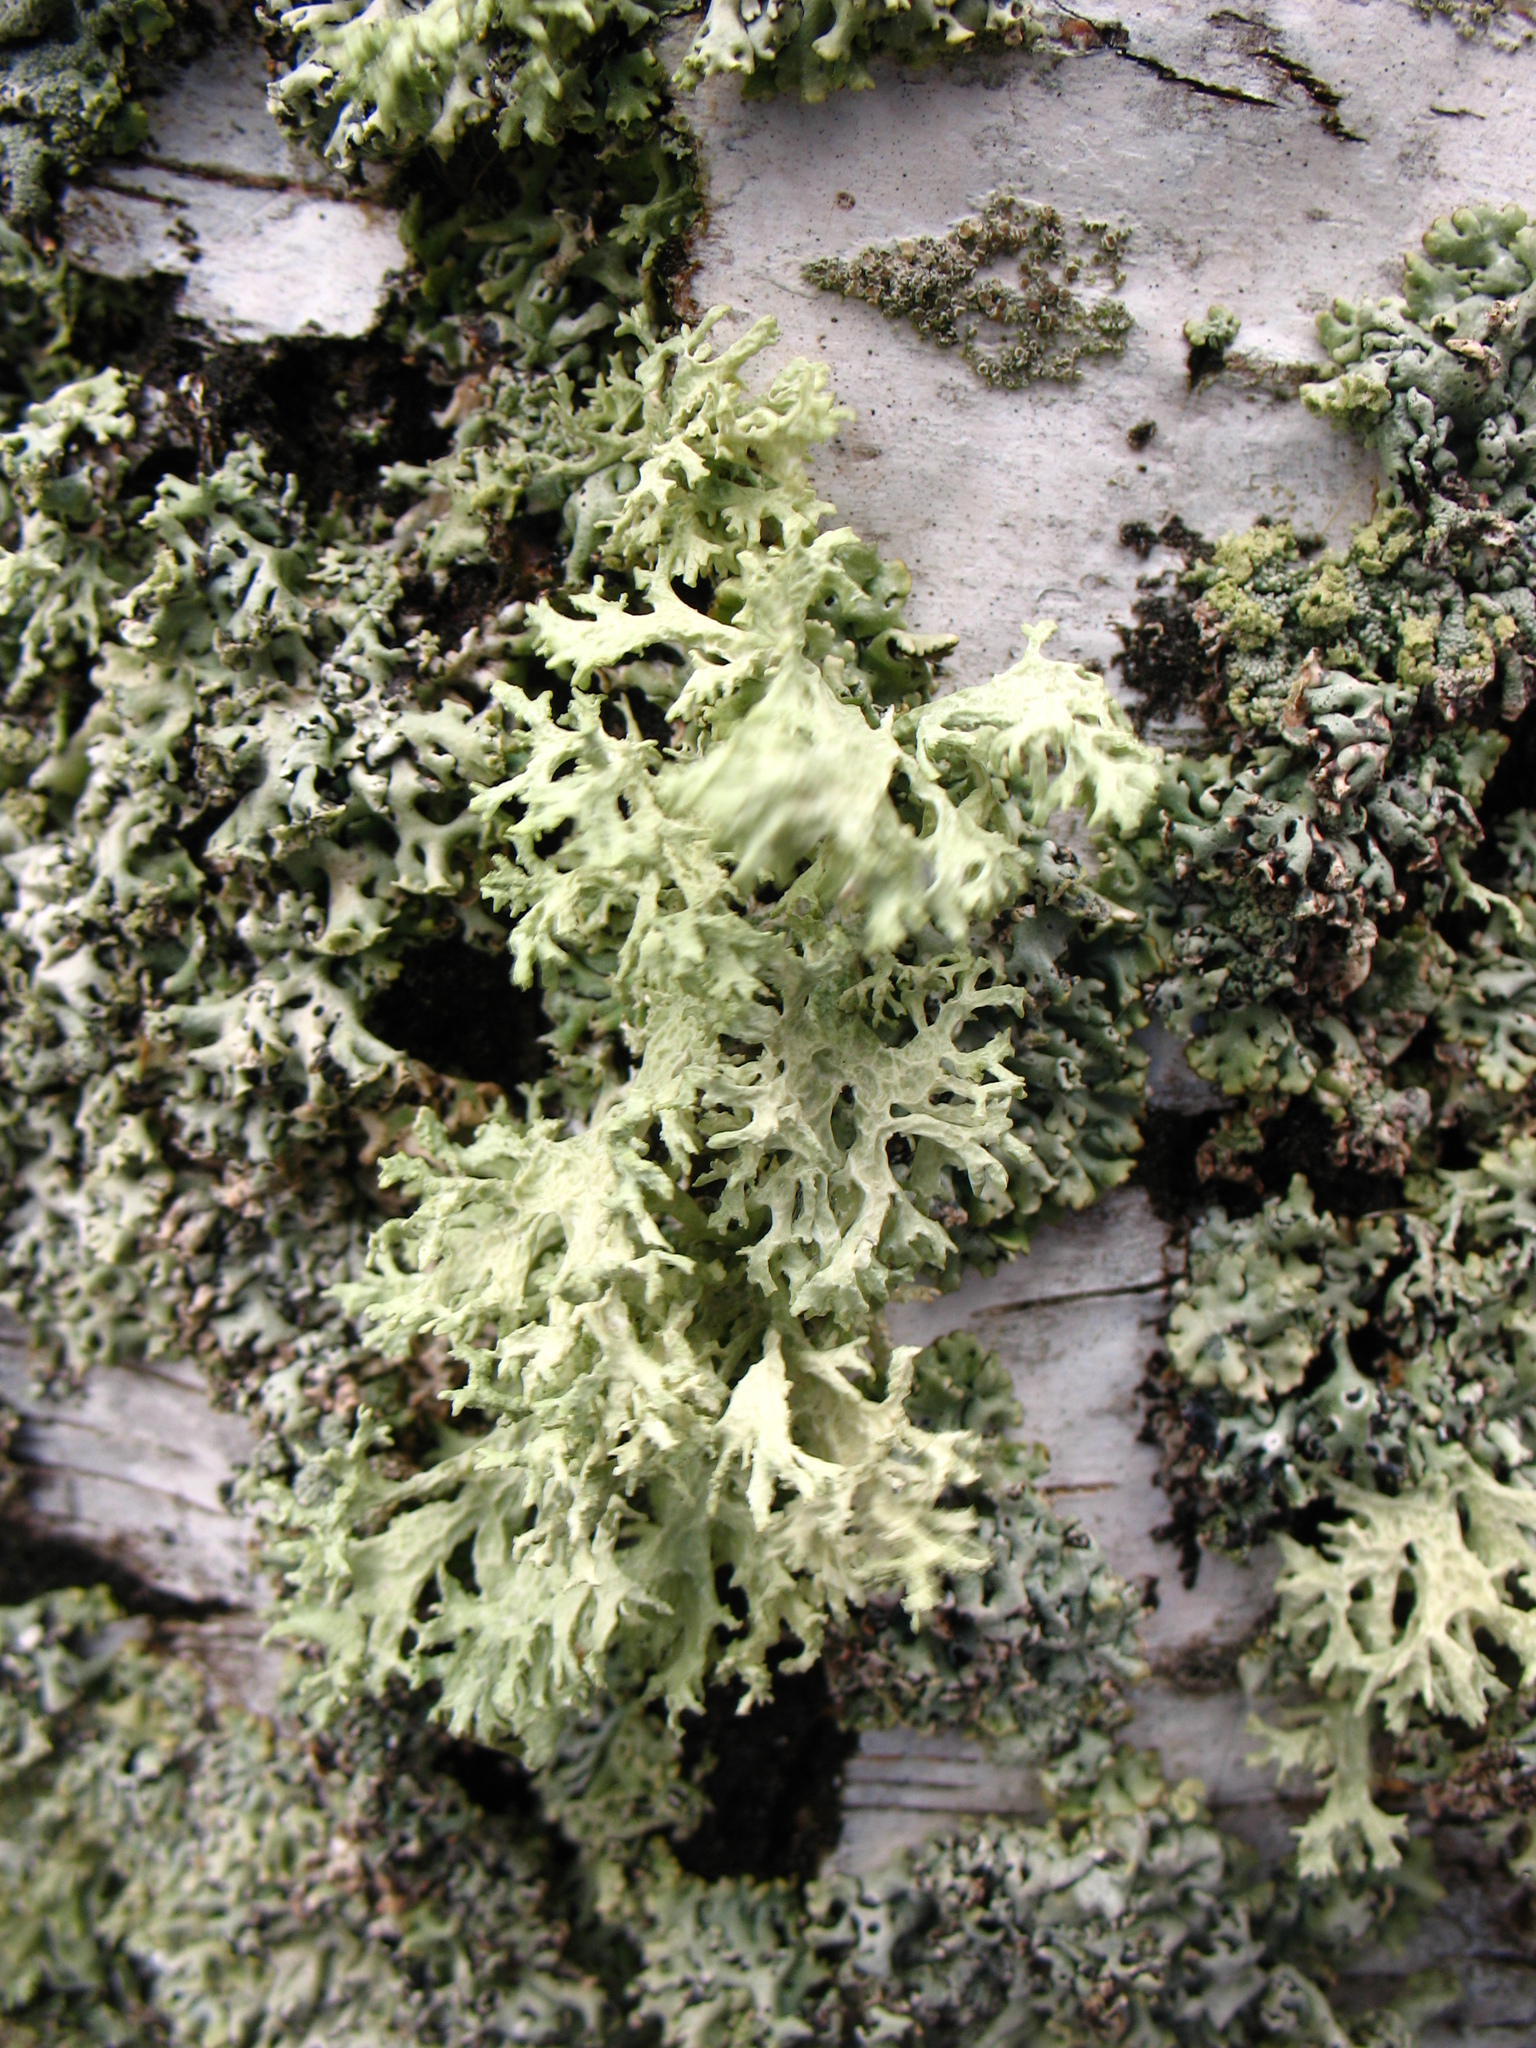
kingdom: Fungi
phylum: Ascomycota
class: Lecanoromycetes
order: Lecanorales
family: Parmeliaceae
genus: Evernia
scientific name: Evernia prunastri
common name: Oak moss
